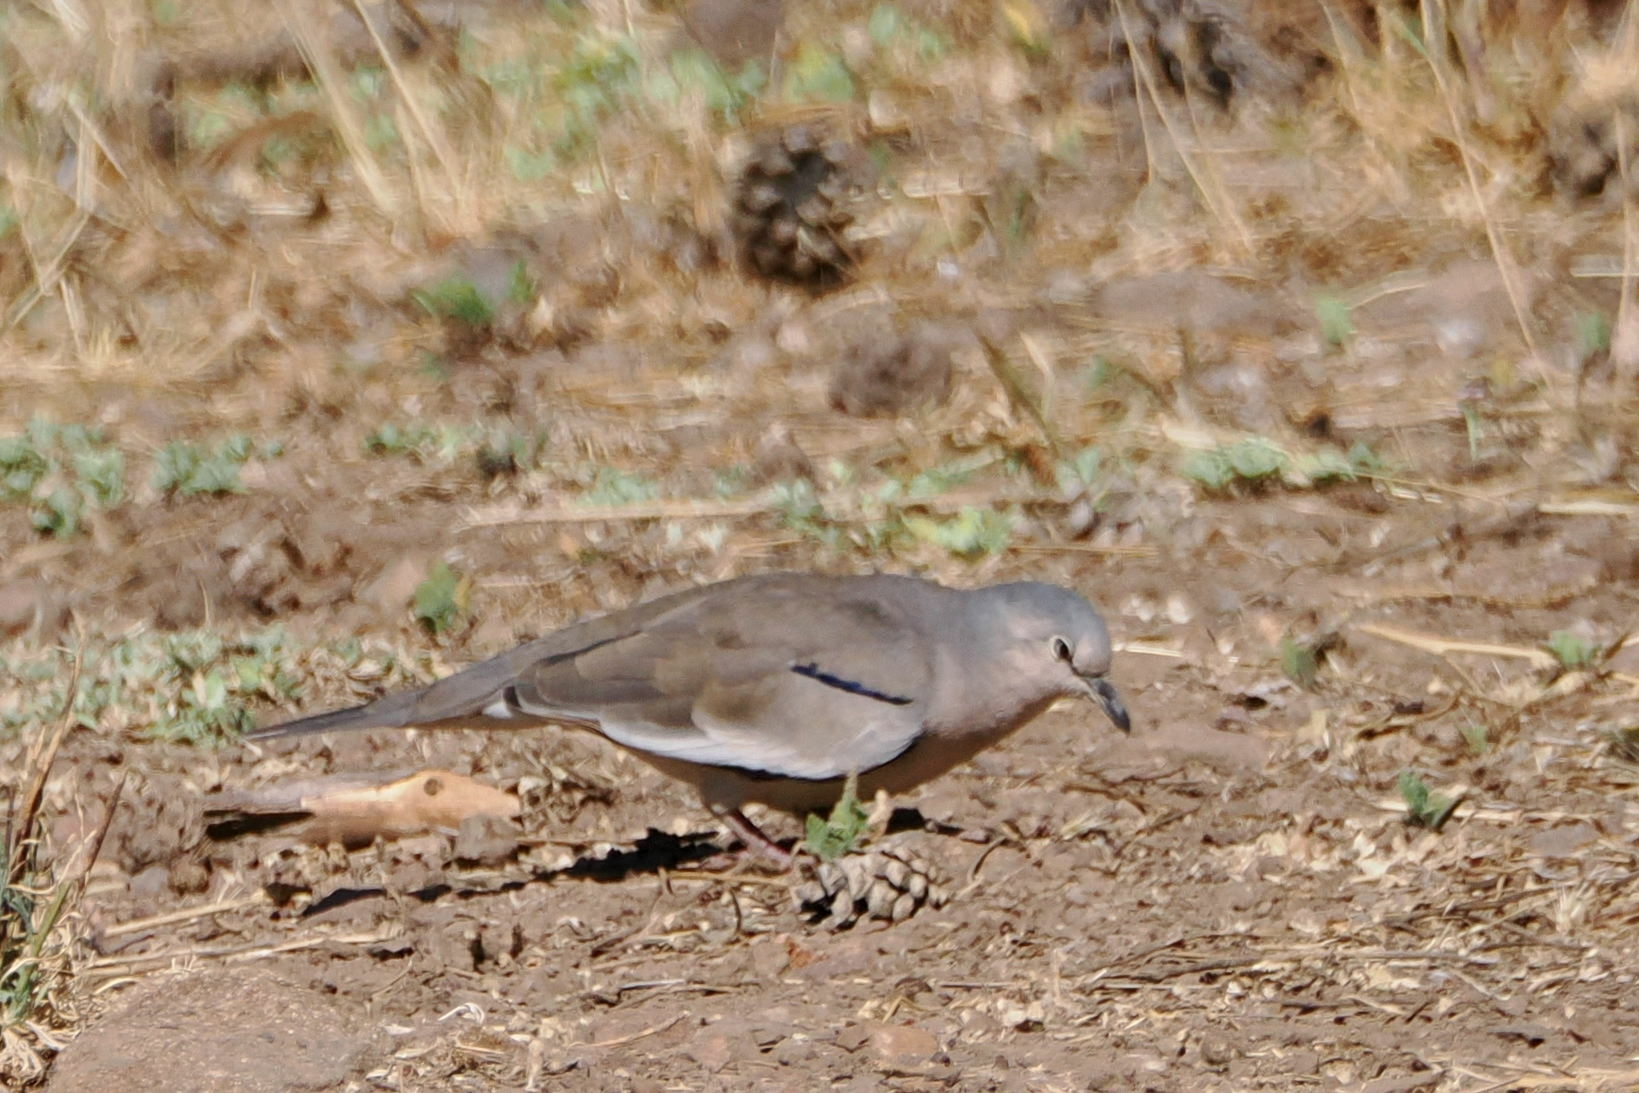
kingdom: Animalia
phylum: Chordata
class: Aves
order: Columbiformes
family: Columbidae
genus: Columbina
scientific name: Columbina picui
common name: Picui ground dove
